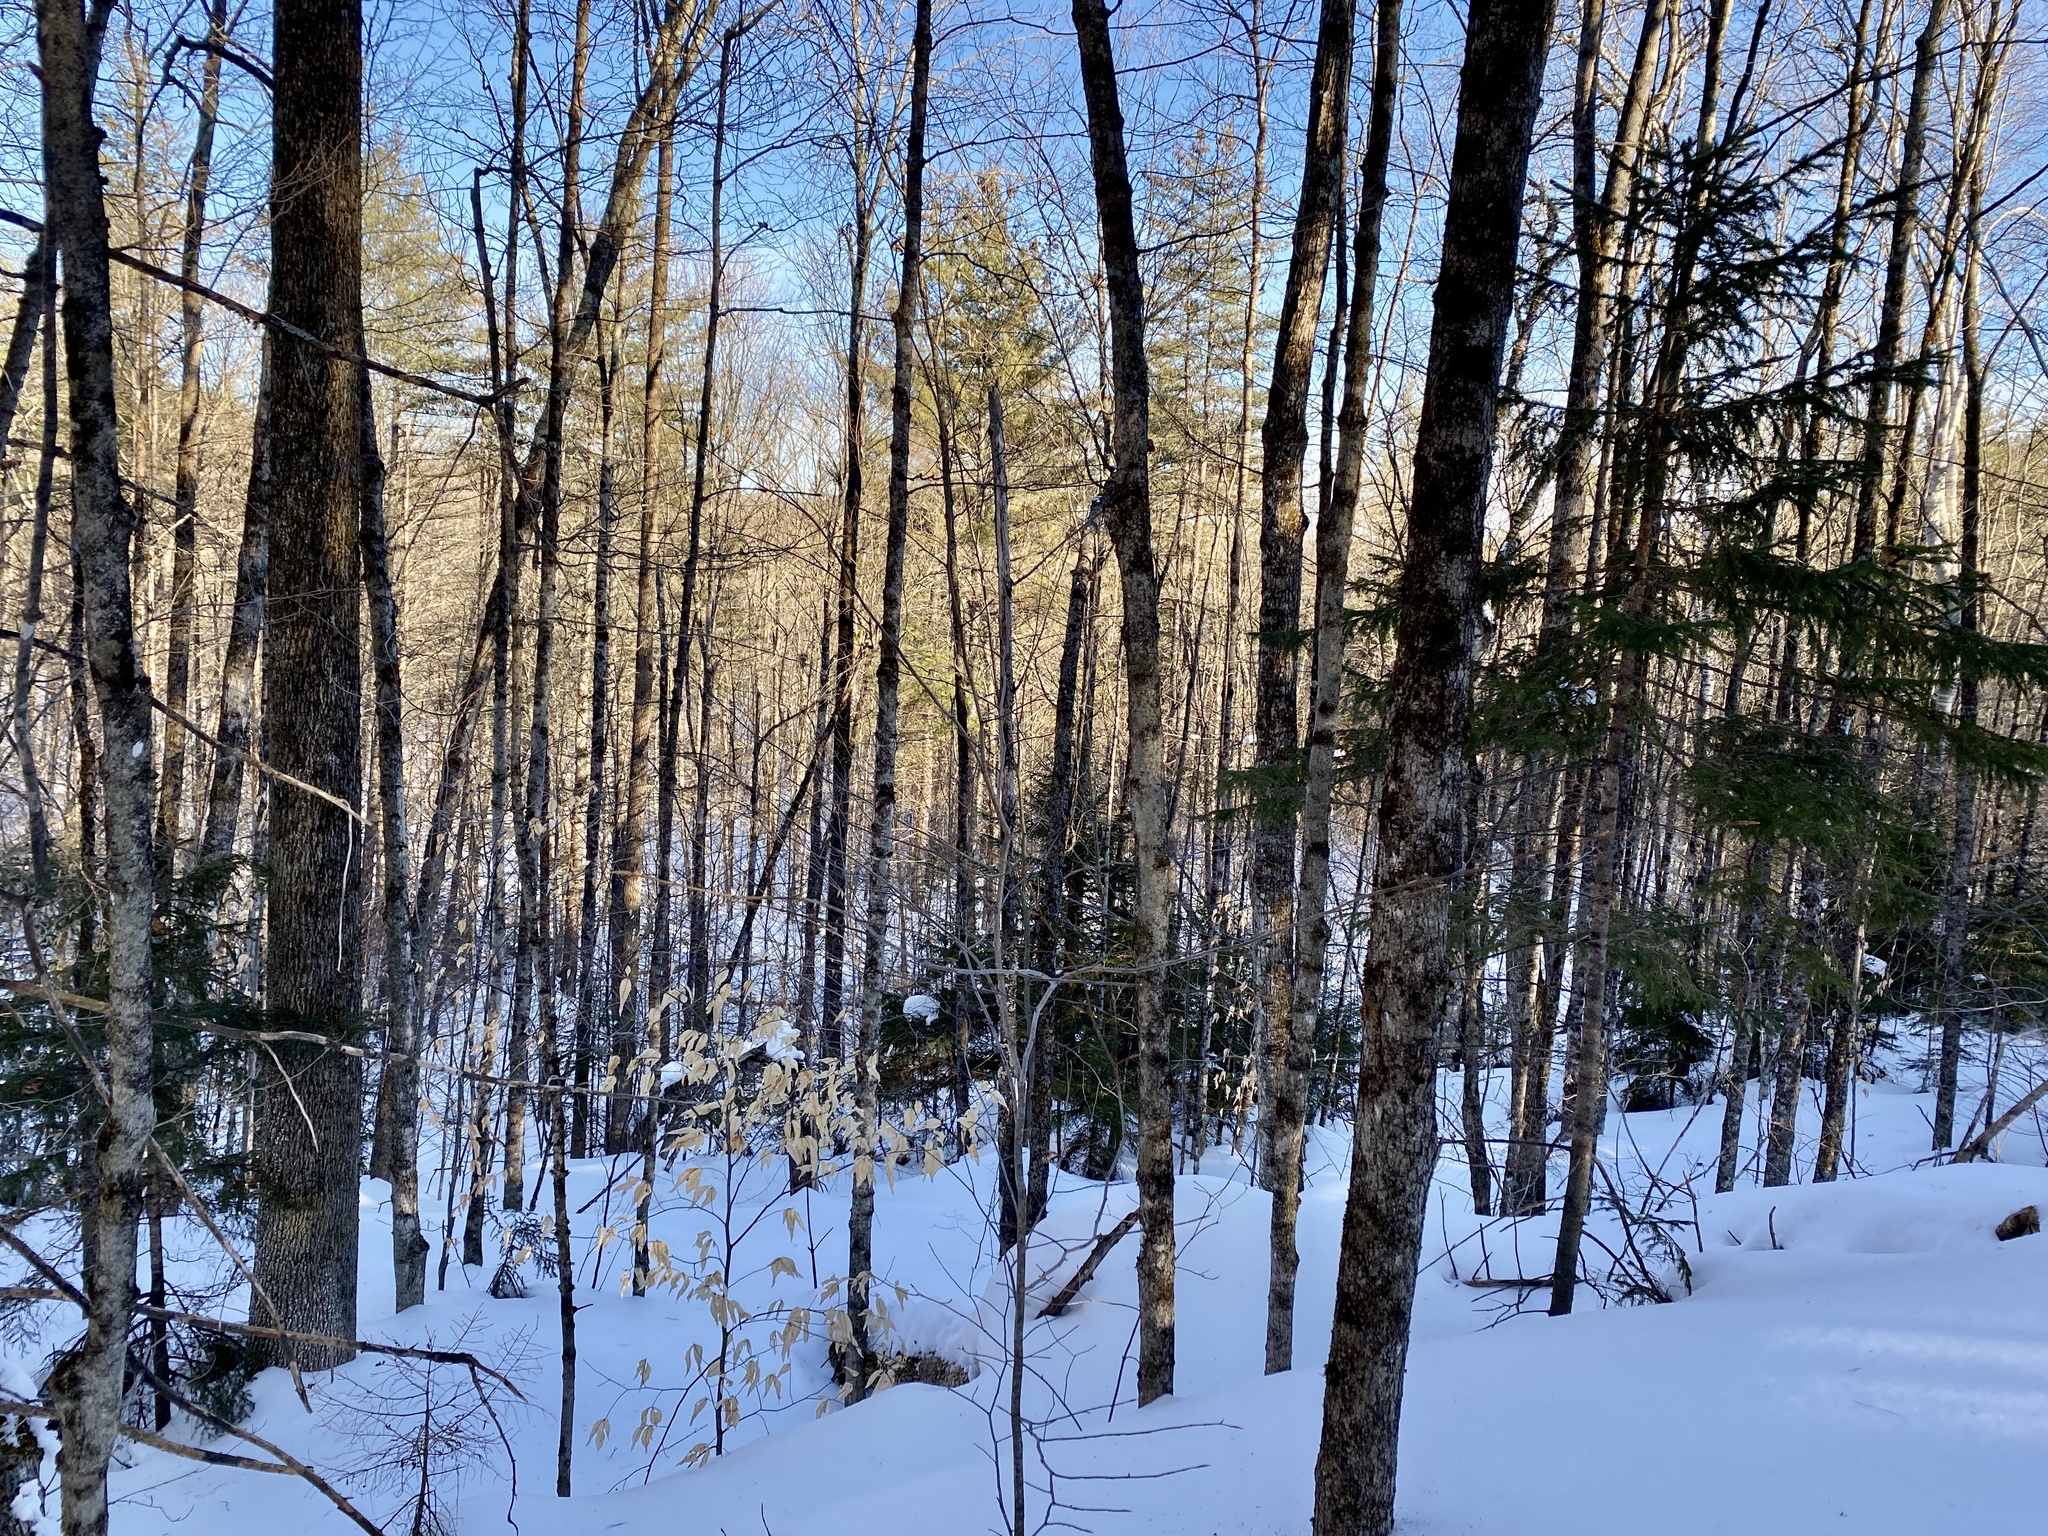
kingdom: Plantae
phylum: Tracheophyta
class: Magnoliopsida
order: Fagales
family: Fagaceae
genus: Fagus
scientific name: Fagus grandifolia
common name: American beech
